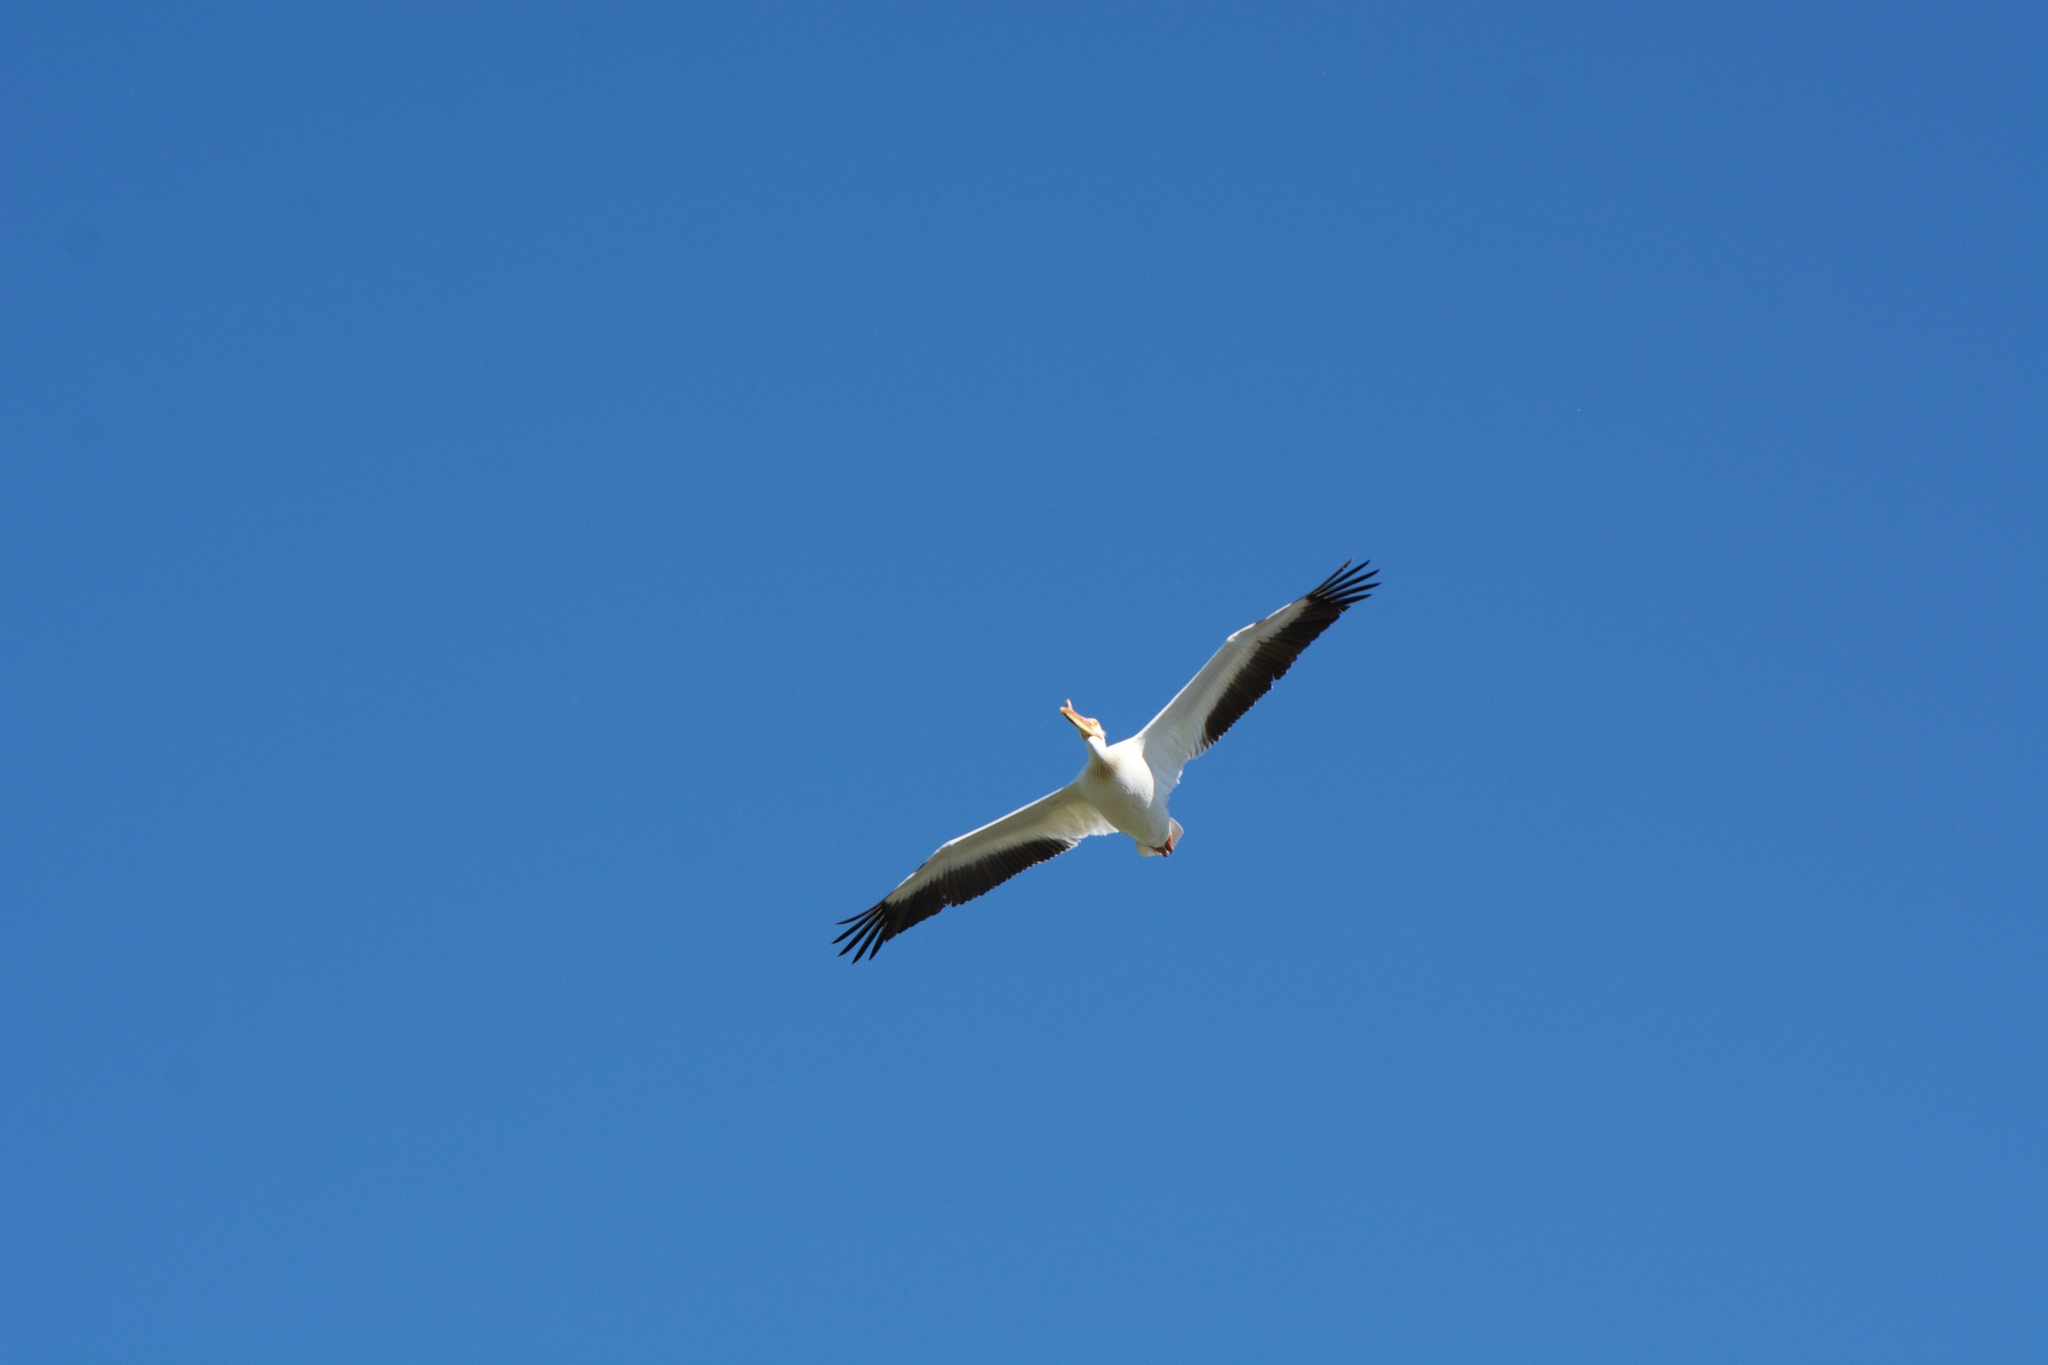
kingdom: Animalia
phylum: Chordata
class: Aves
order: Pelecaniformes
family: Pelecanidae
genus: Pelecanus
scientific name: Pelecanus erythrorhynchos
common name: American white pelican
